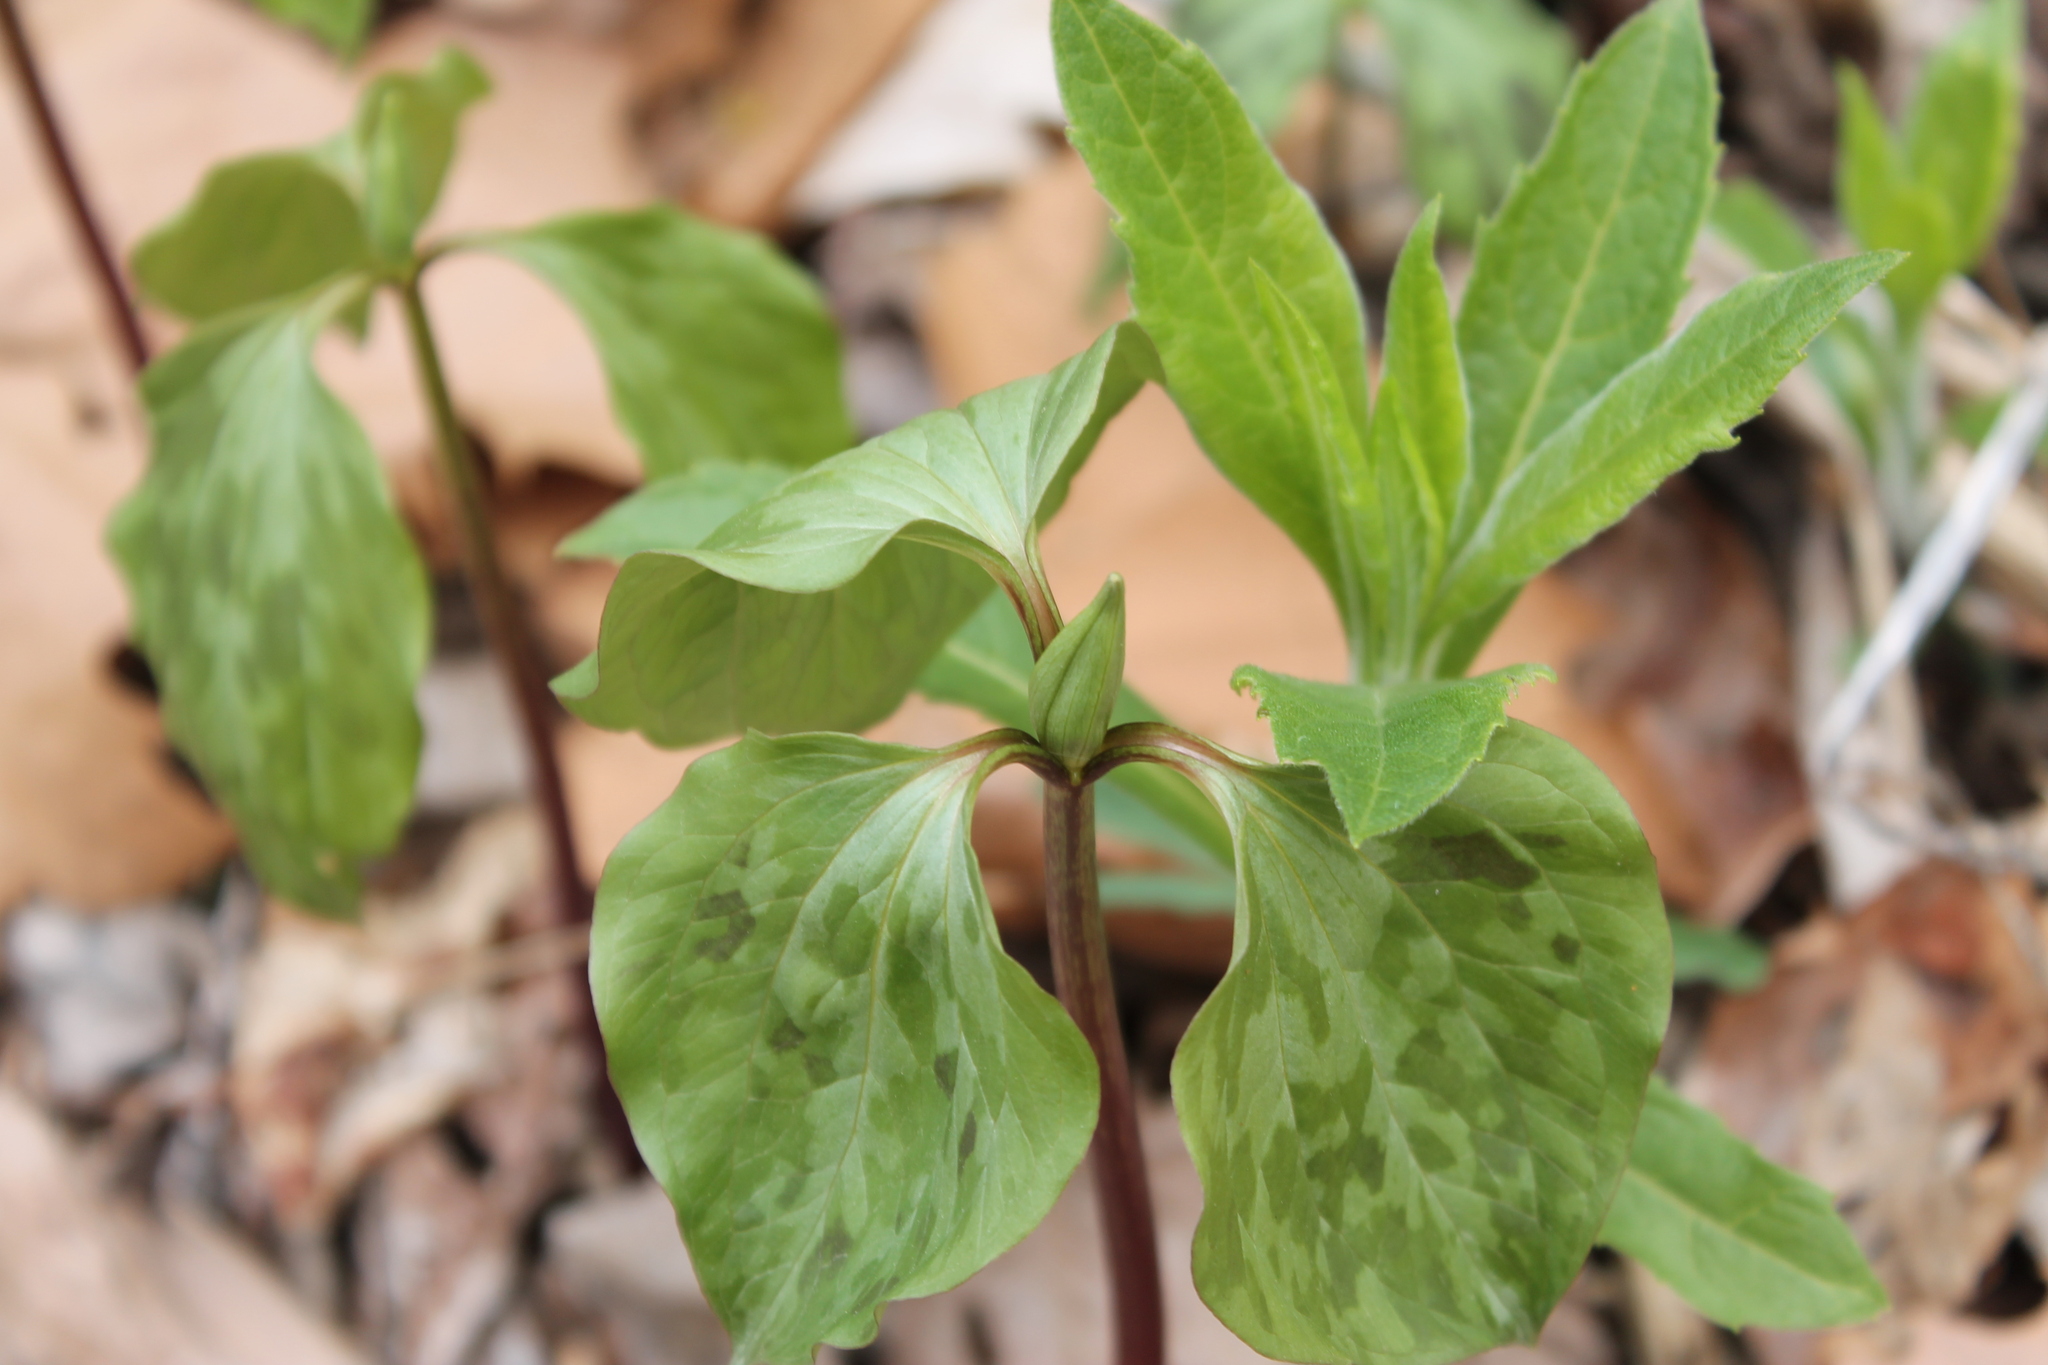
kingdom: Plantae
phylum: Tracheophyta
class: Liliopsida
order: Liliales
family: Melanthiaceae
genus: Trillium
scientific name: Trillium recurvatum
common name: Bloody butcher
